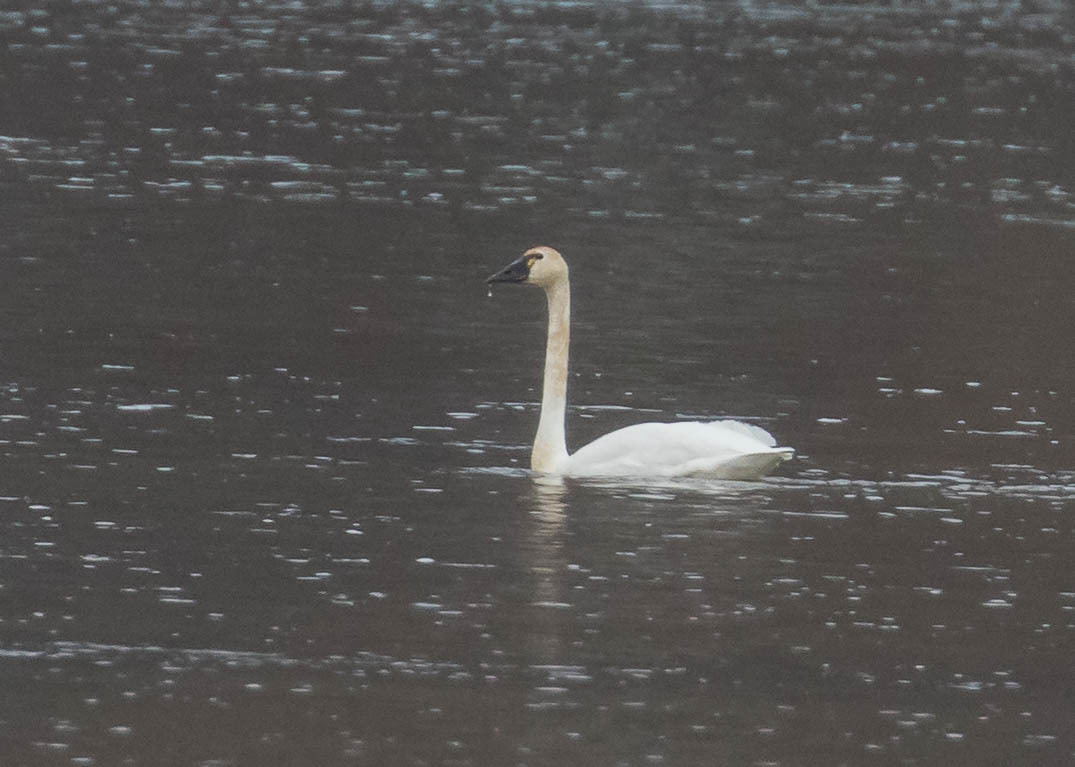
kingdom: Animalia
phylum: Chordata
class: Aves
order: Anseriformes
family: Anatidae
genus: Cygnus
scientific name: Cygnus columbianus
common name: Tundra swan
